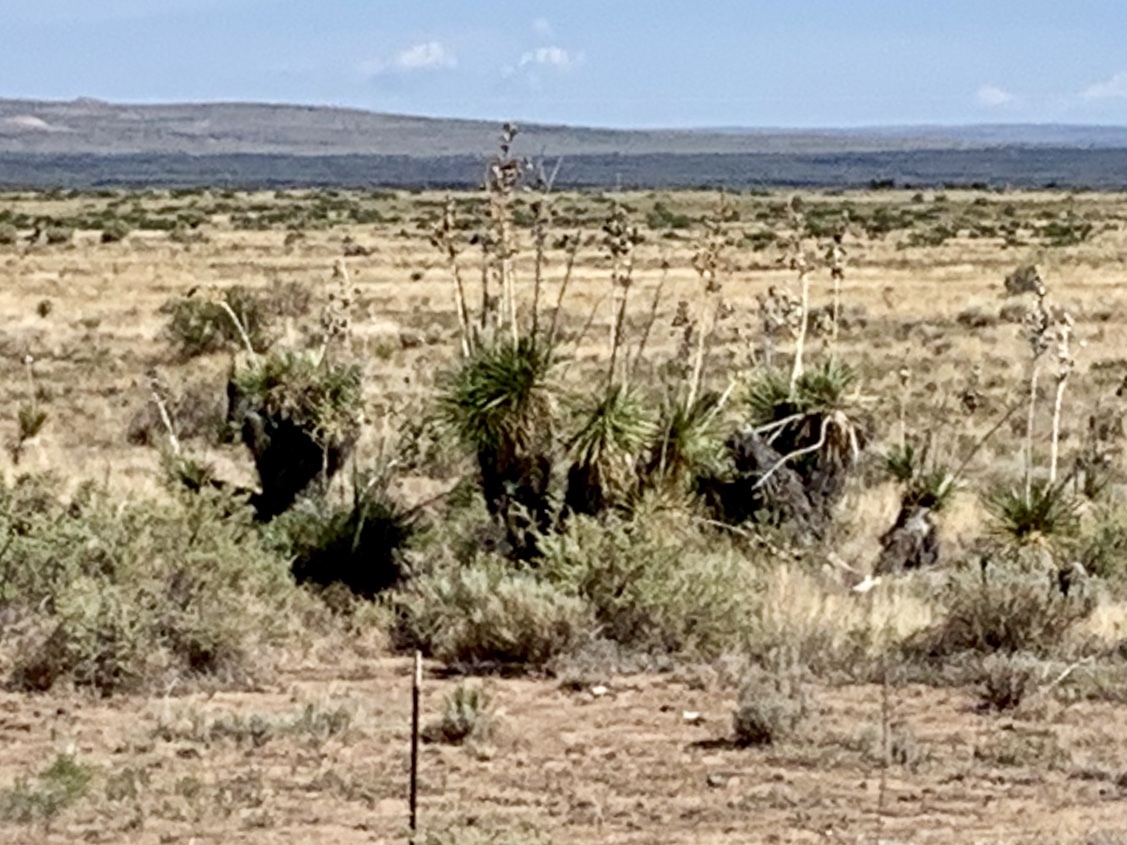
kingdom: Plantae
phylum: Tracheophyta
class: Liliopsida
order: Asparagales
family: Asparagaceae
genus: Yucca
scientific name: Yucca elata
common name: Palmella
